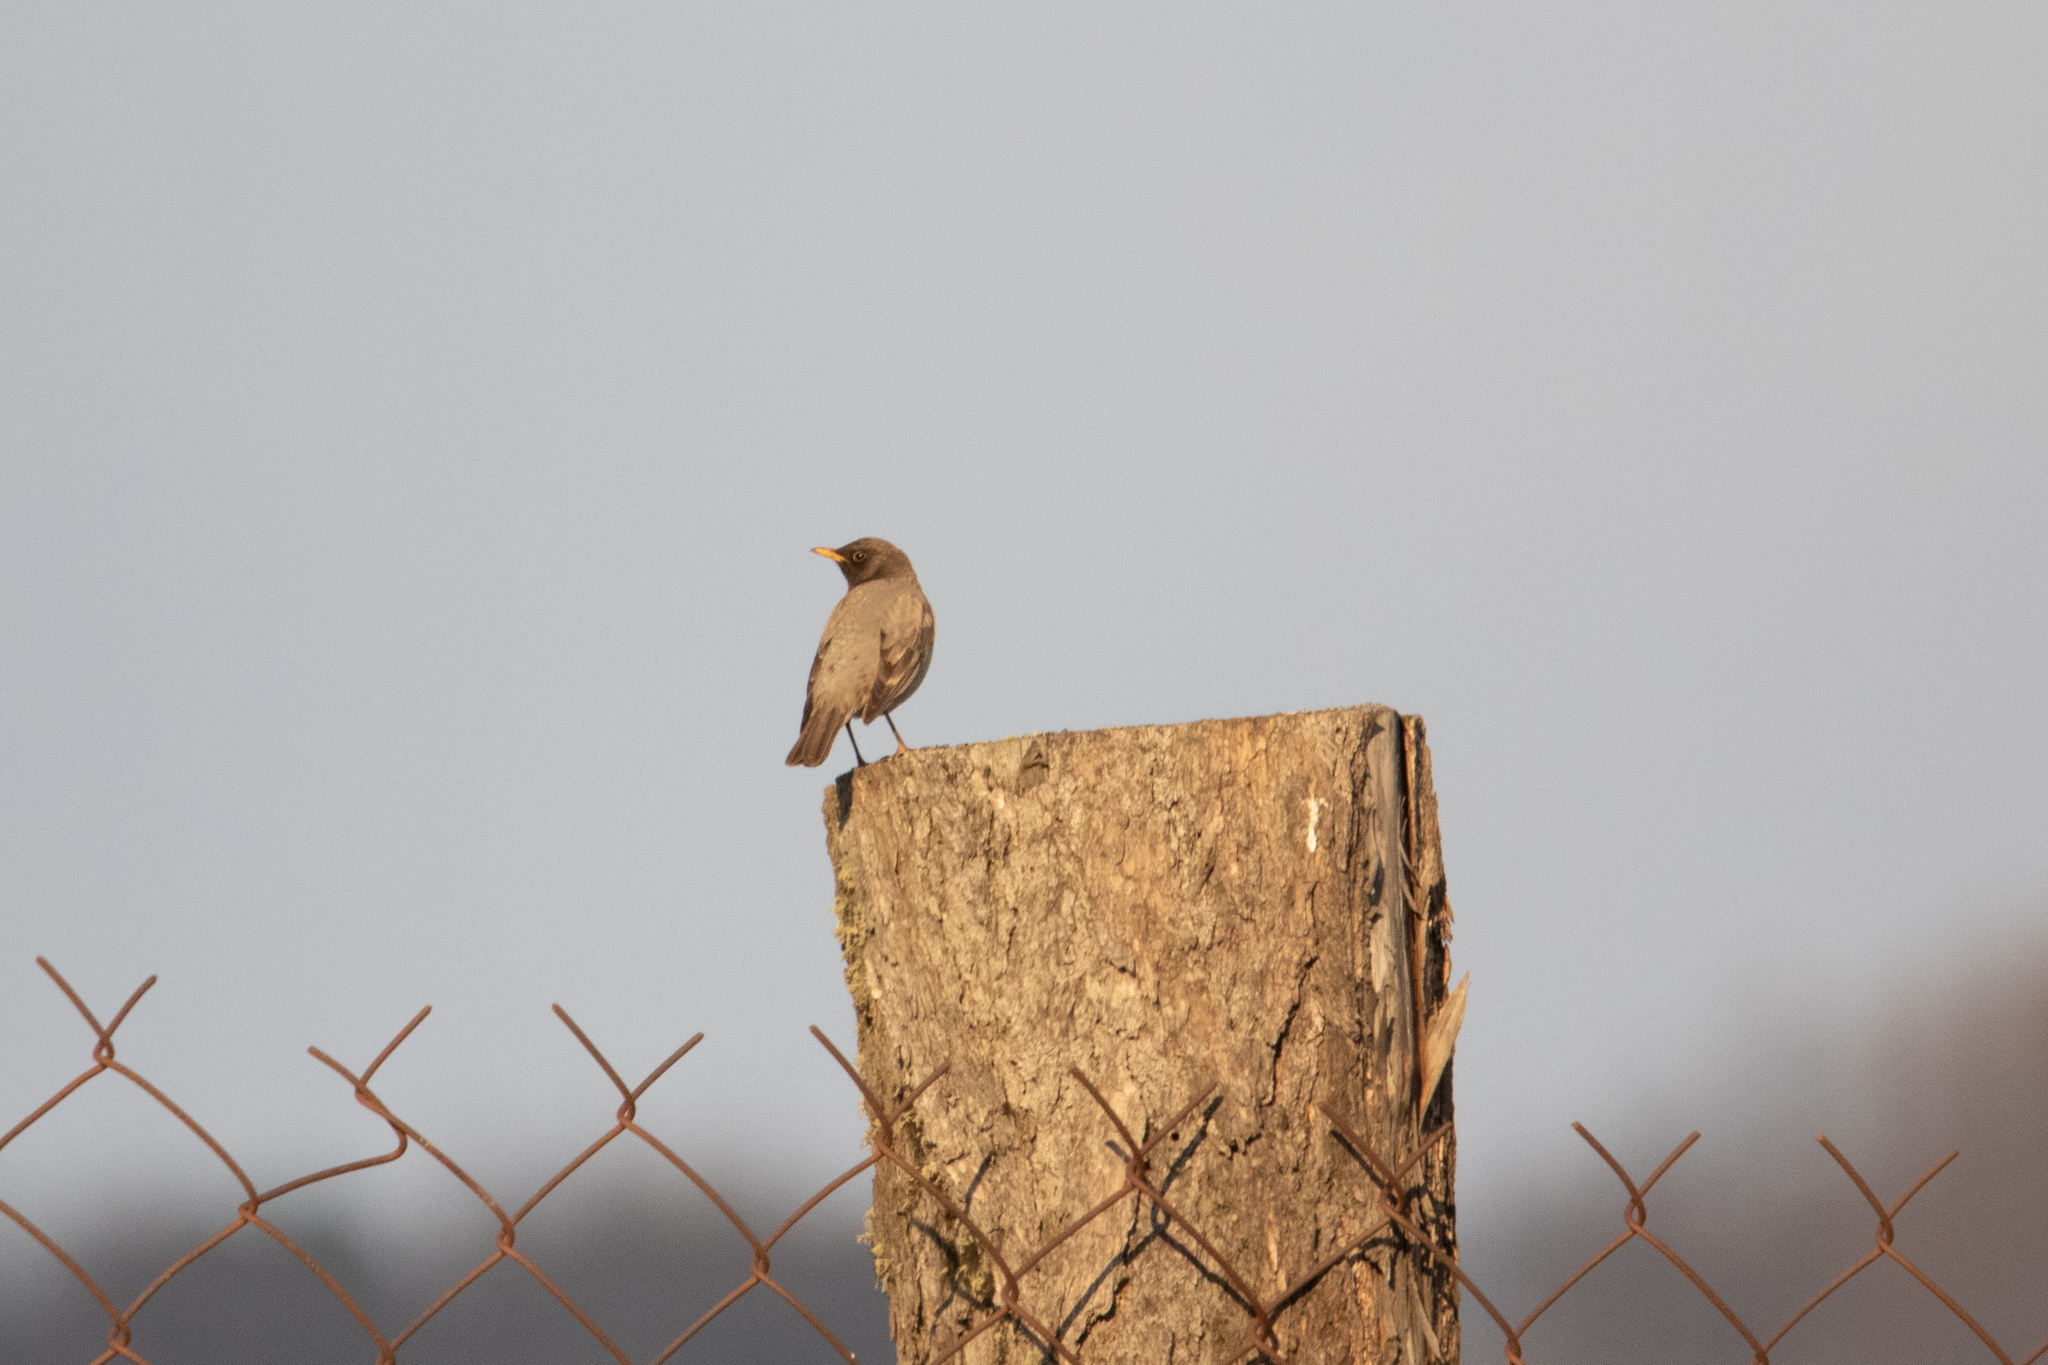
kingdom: Animalia
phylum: Chordata
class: Aves
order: Passeriformes
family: Turdidae
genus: Turdus
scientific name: Turdus atrogularis
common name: Black-throated thrush
